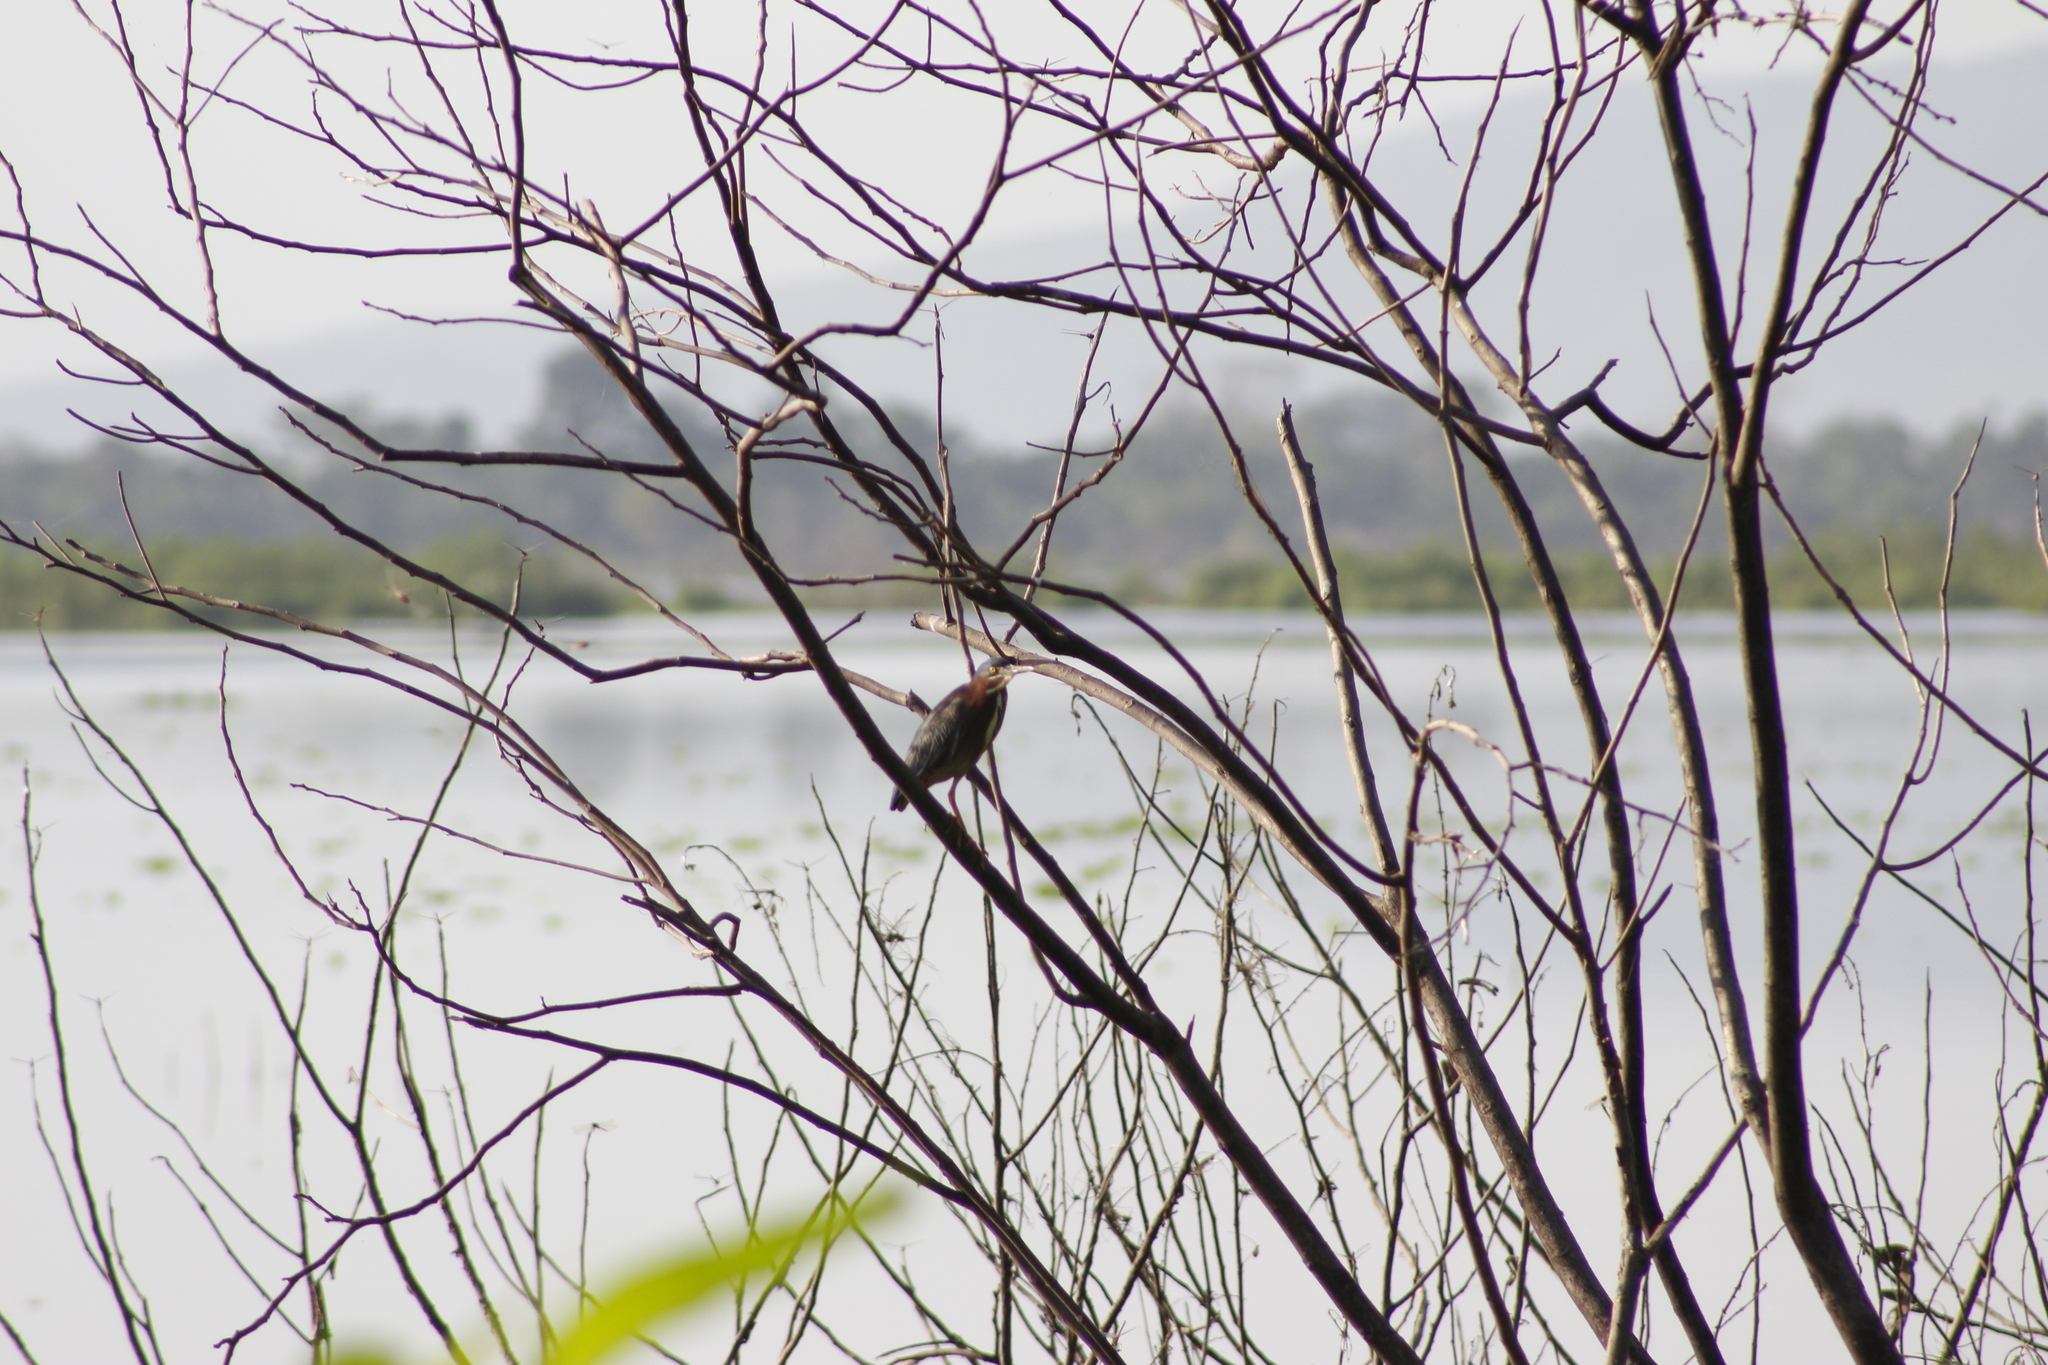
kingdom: Animalia
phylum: Chordata
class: Aves
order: Pelecaniformes
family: Ardeidae
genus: Butorides
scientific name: Butorides virescens
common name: Green heron
